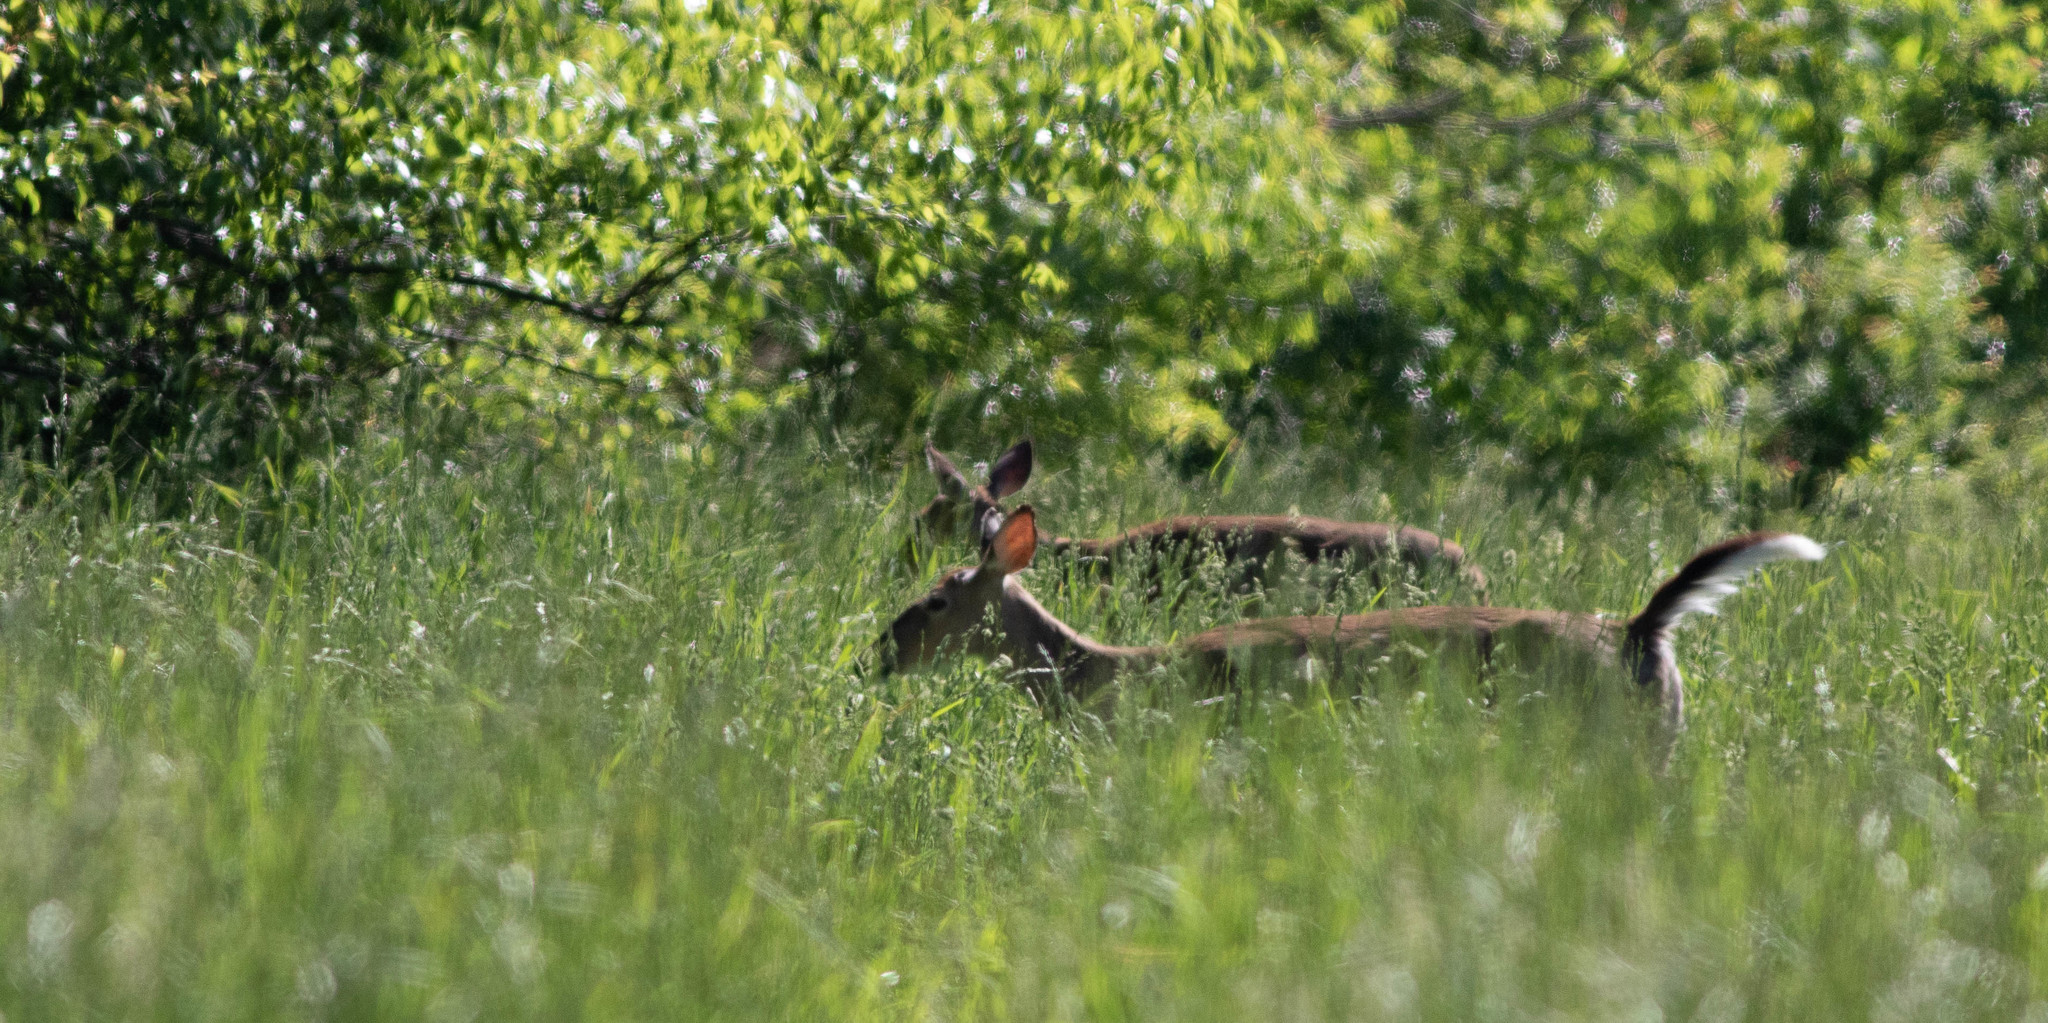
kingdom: Animalia
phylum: Chordata
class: Mammalia
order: Artiodactyla
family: Cervidae
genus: Odocoileus
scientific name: Odocoileus virginianus
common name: White-tailed deer
